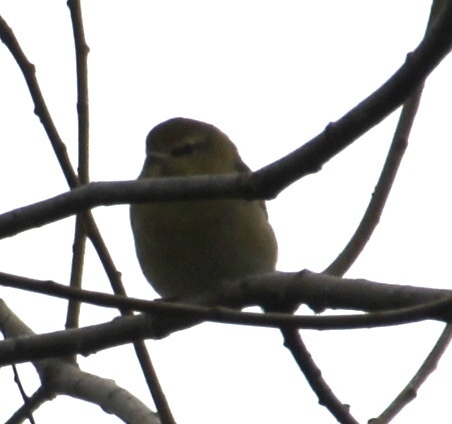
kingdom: Animalia
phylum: Chordata
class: Aves
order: Passeriformes
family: Parulidae
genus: Leiothlypis
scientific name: Leiothlypis peregrina
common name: Tennessee warbler
